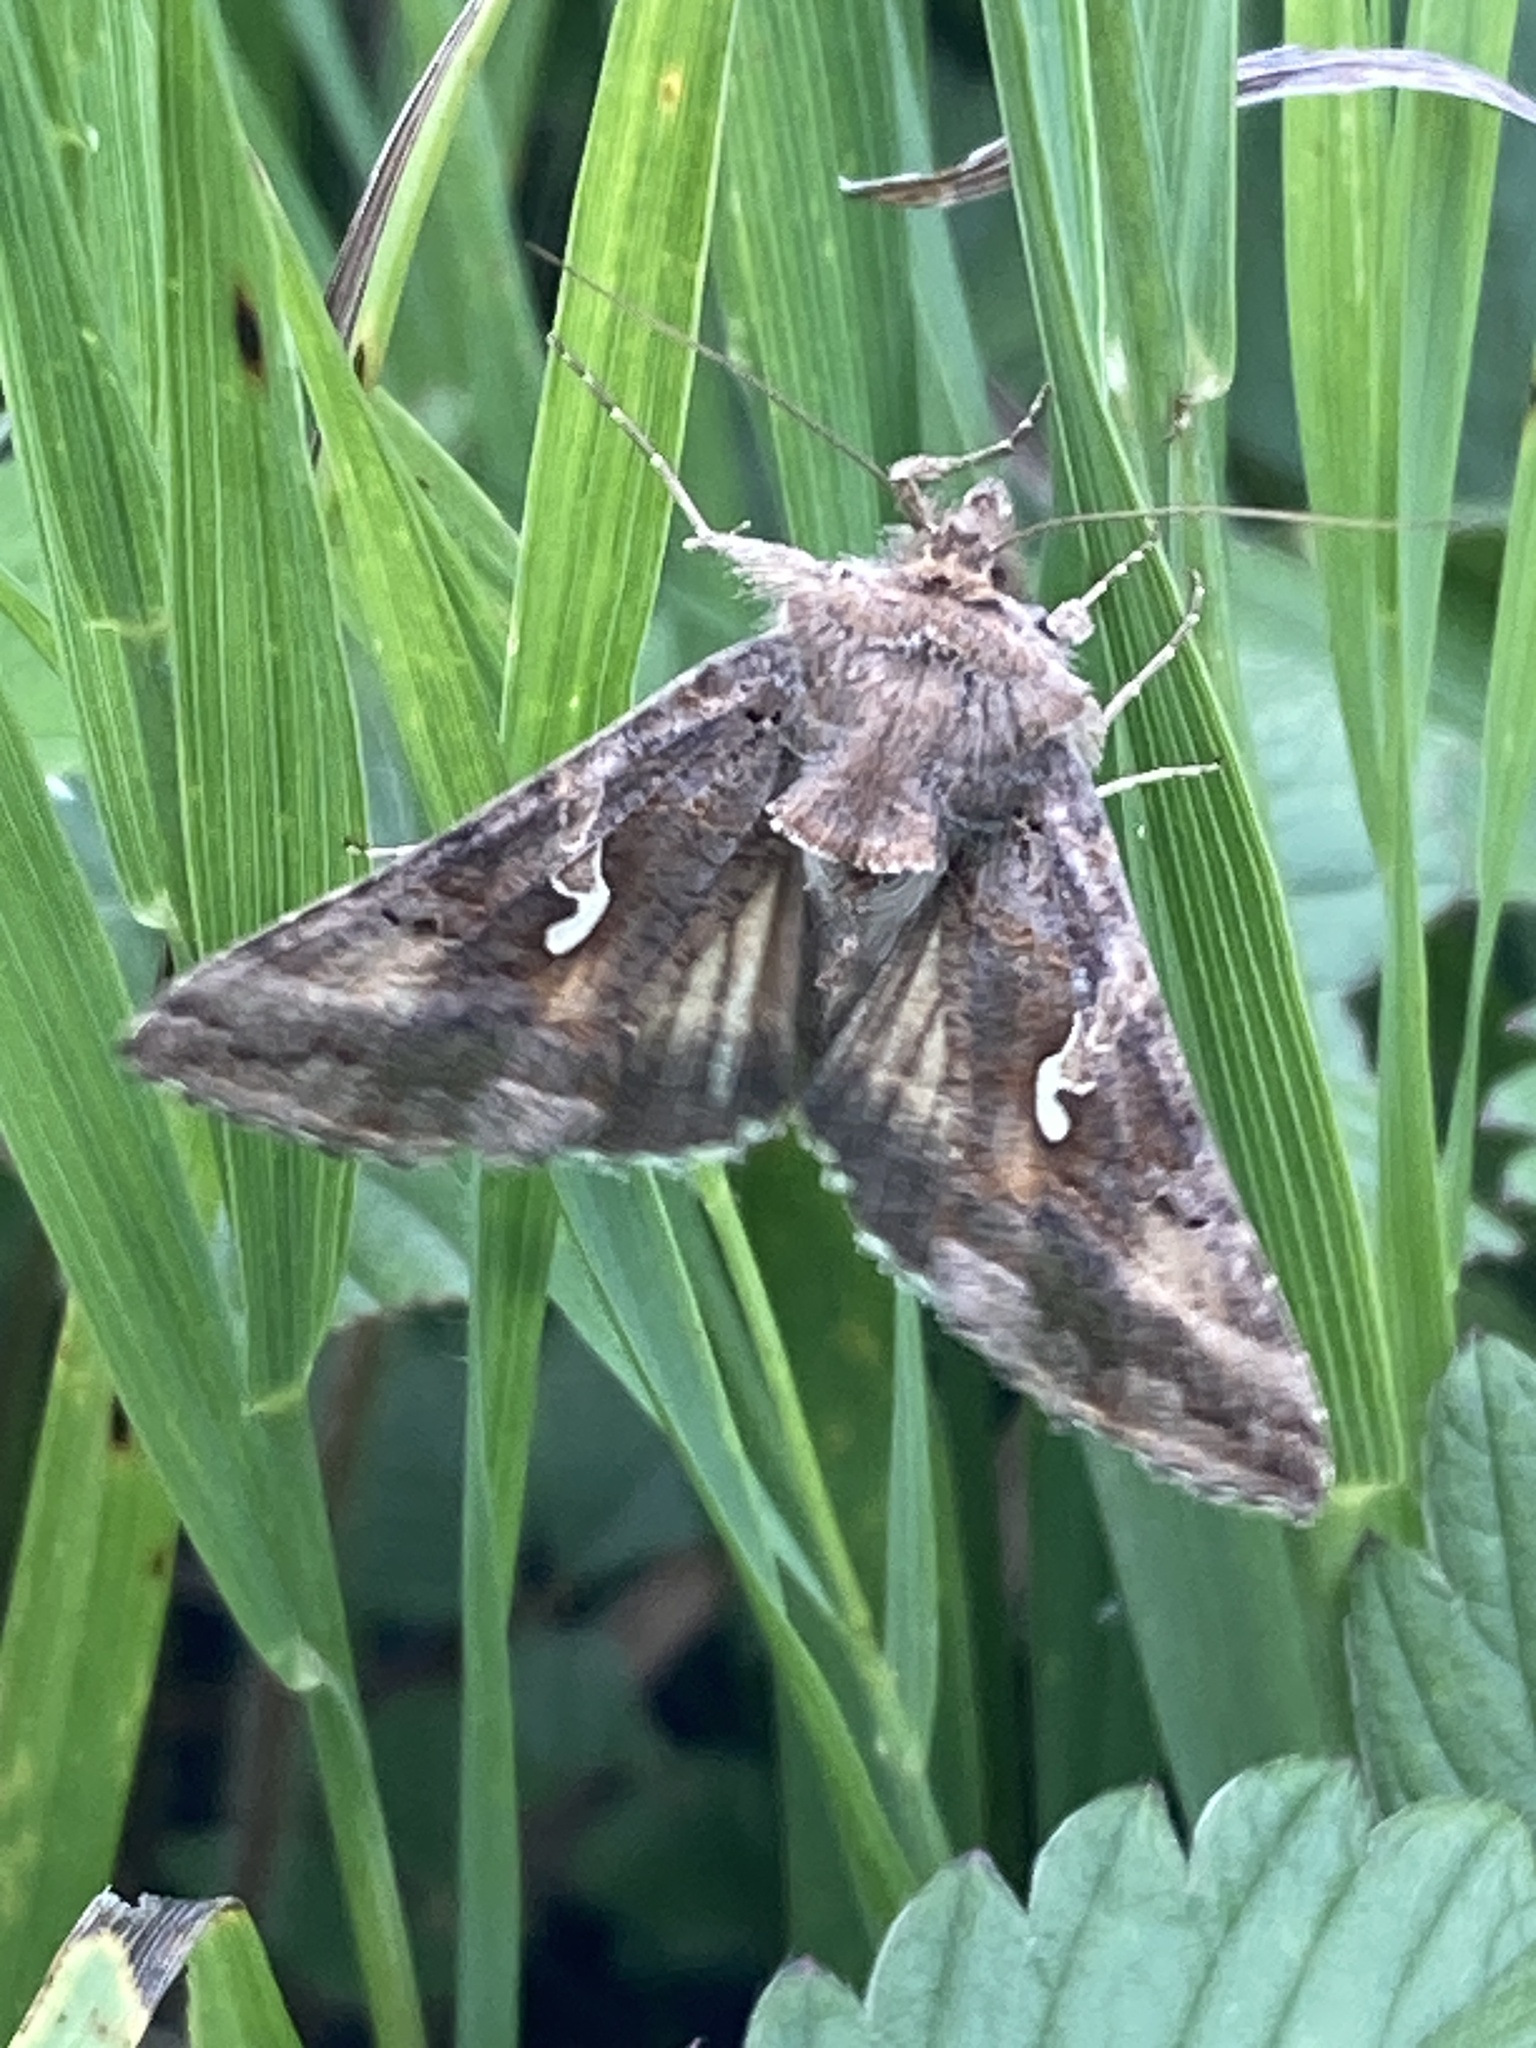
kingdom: Animalia
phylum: Arthropoda
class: Insecta
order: Lepidoptera
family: Noctuidae
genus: Autographa
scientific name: Autographa gamma
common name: Silver y
